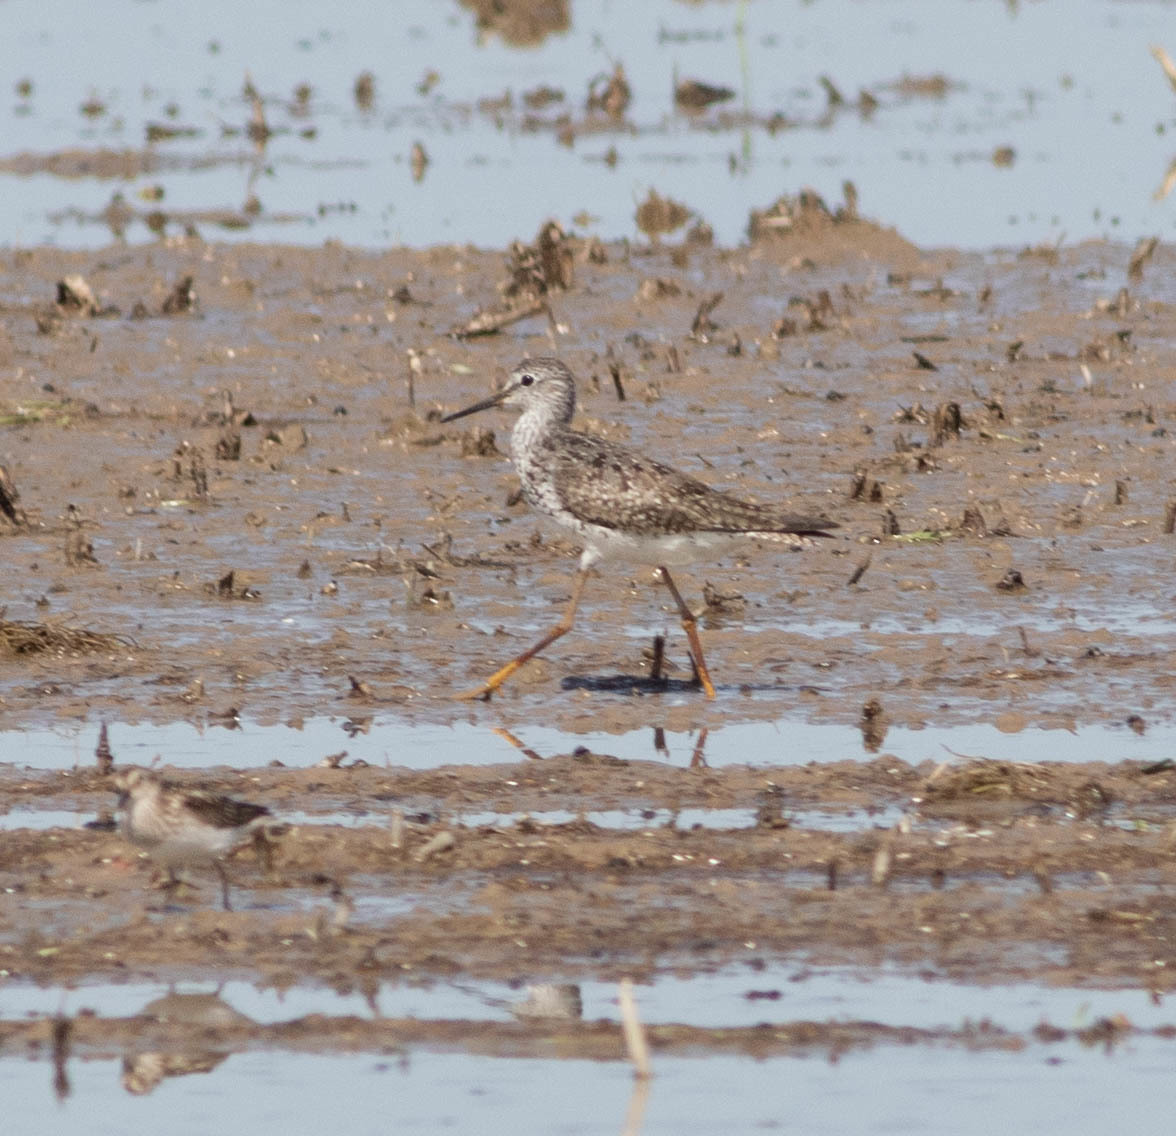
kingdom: Animalia
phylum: Chordata
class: Aves
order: Charadriiformes
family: Scolopacidae
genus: Tringa
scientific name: Tringa flavipes
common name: Lesser yellowlegs
